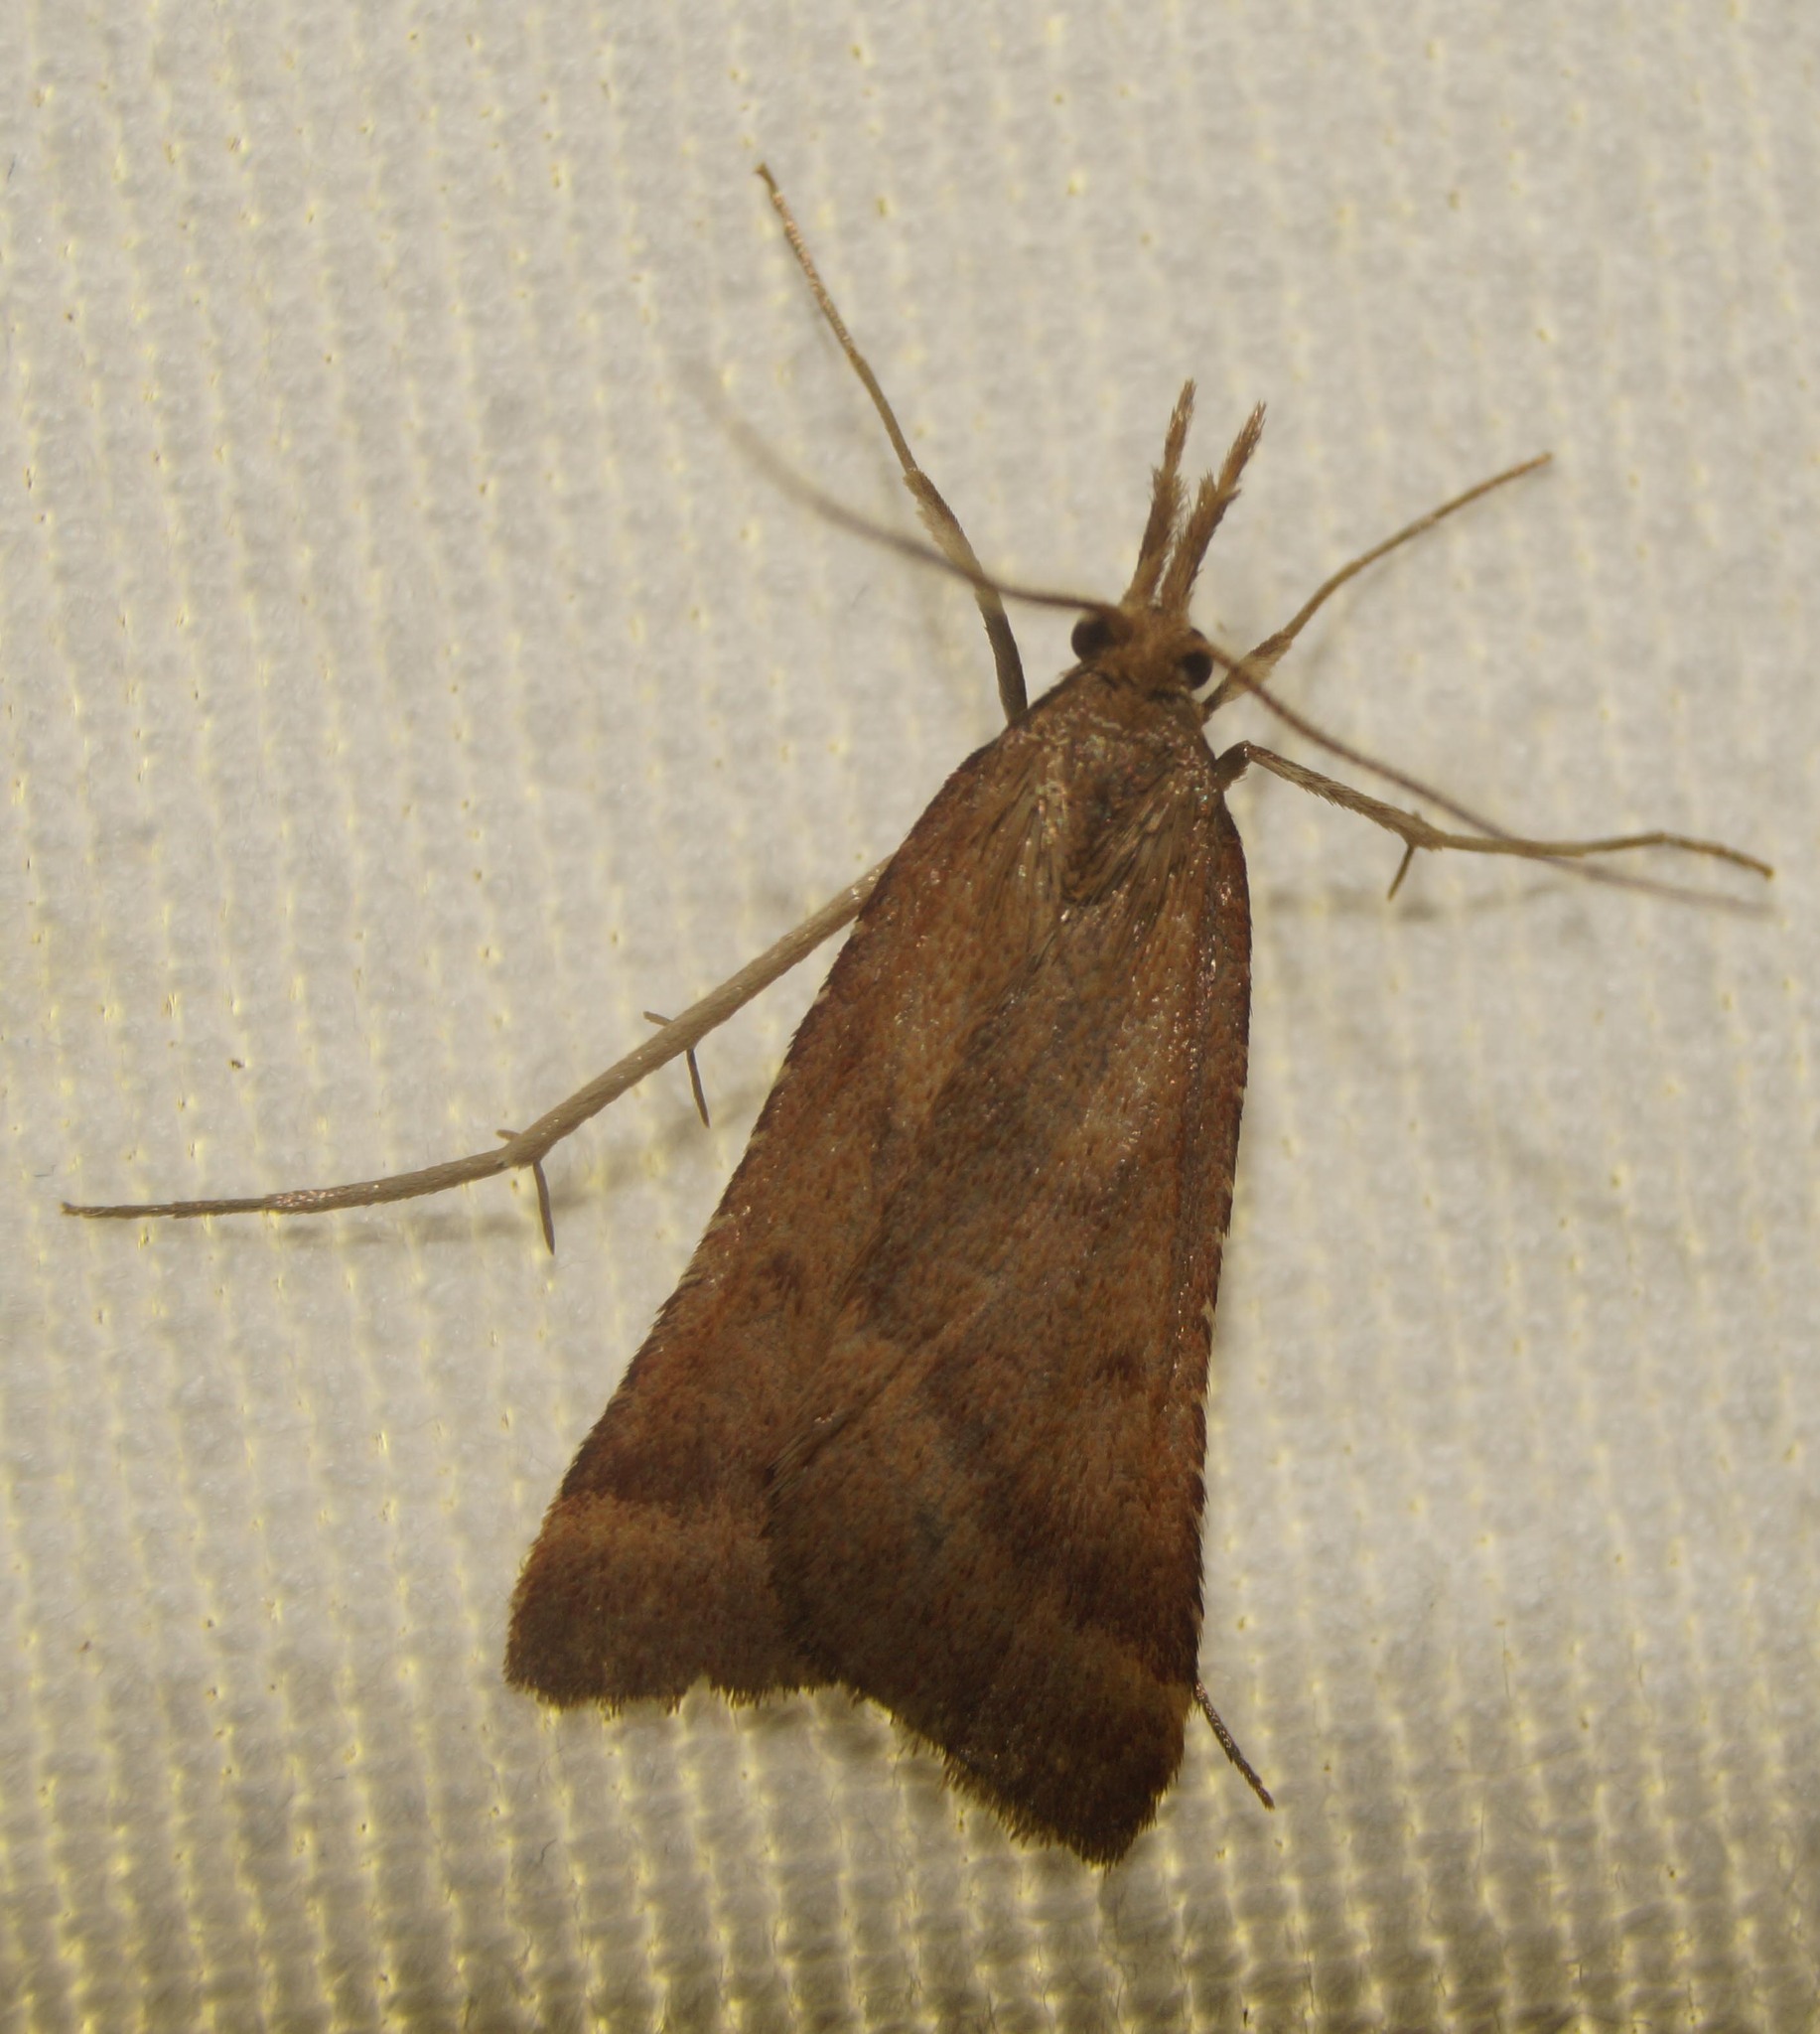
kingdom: Animalia
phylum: Arthropoda
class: Insecta
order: Lepidoptera
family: Pyralidae
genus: Synaphe
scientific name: Synaphe punctalis
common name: Long-legged tabby
